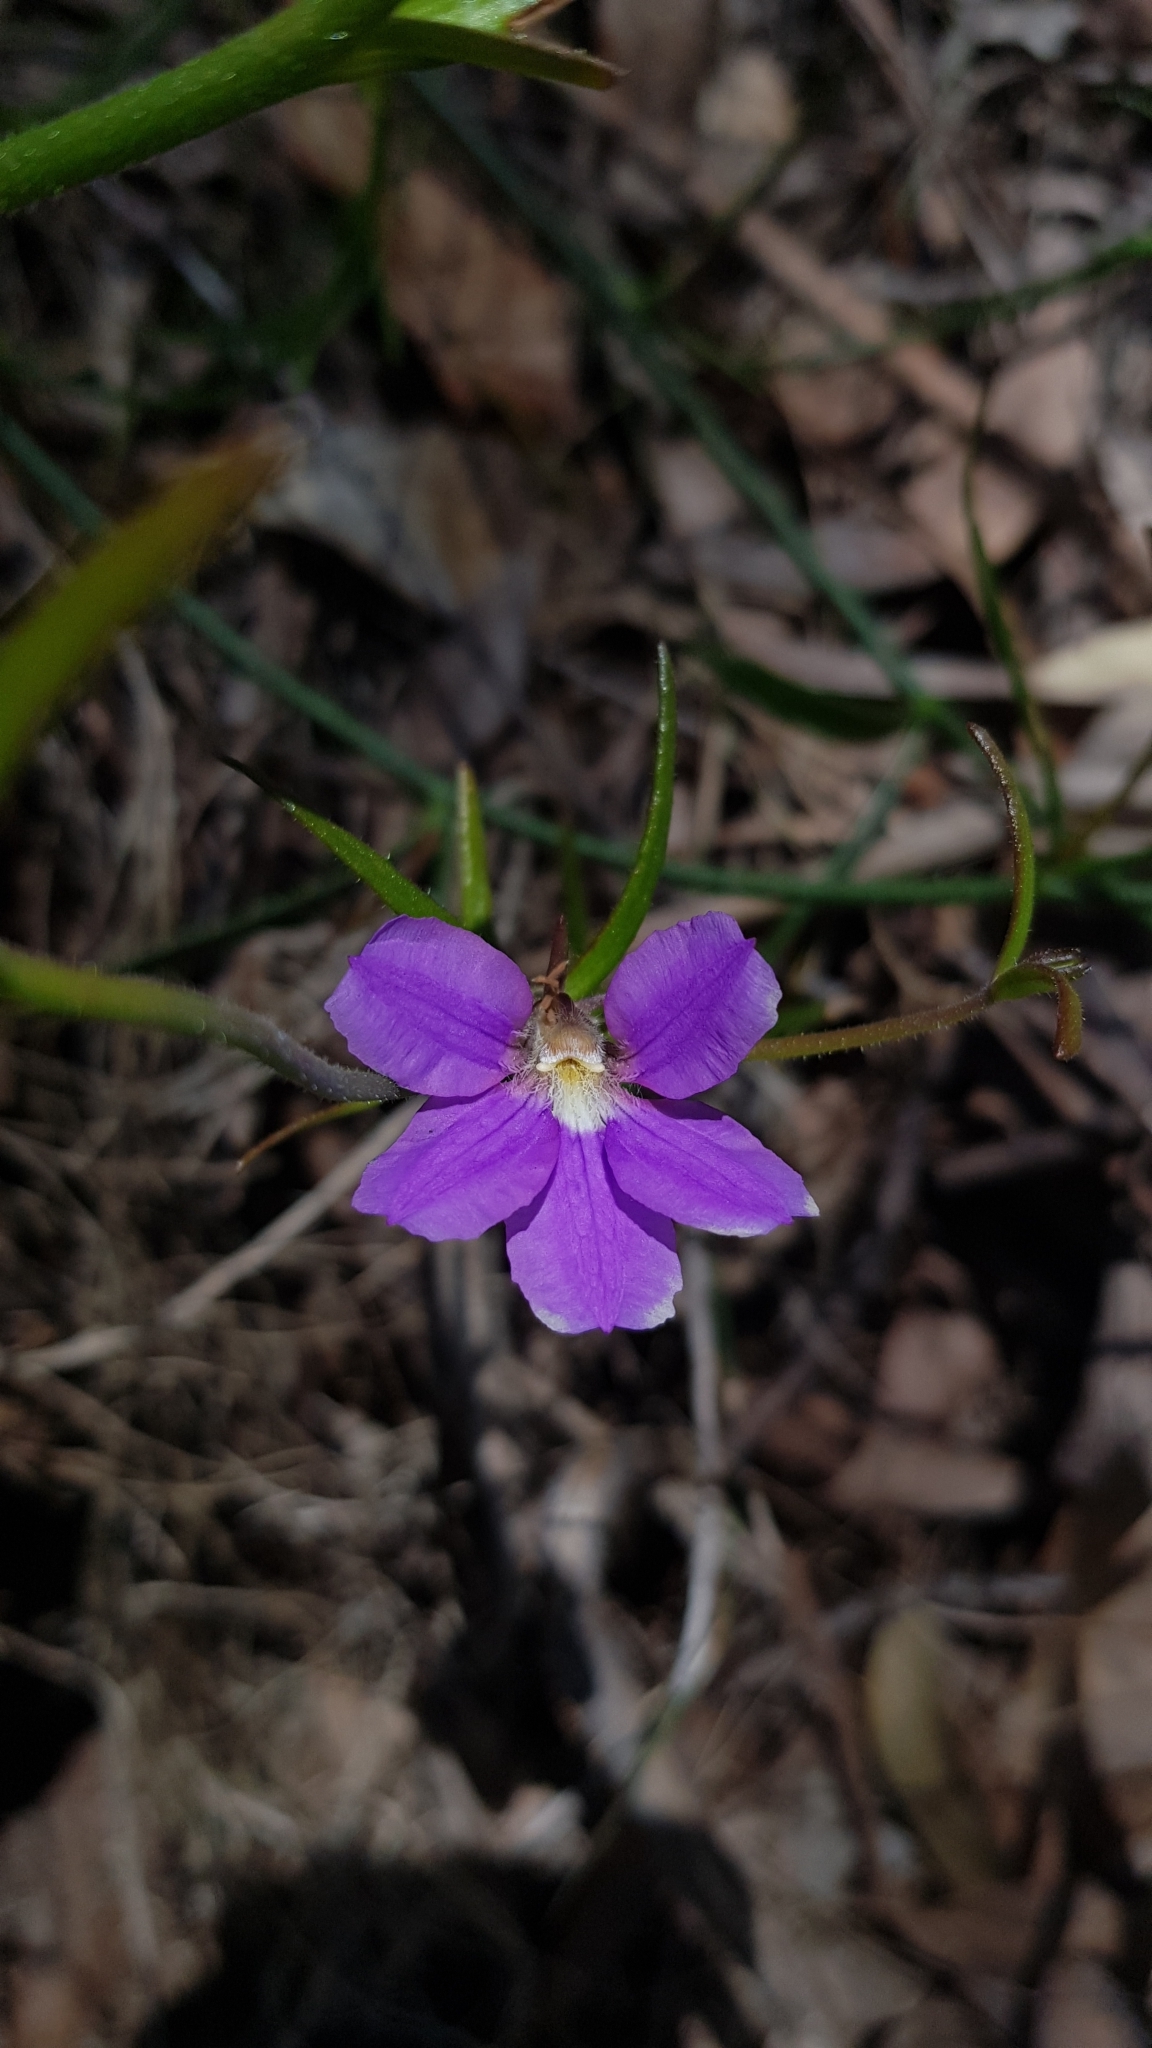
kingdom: Plantae
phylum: Tracheophyta
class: Magnoliopsida
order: Asterales
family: Goodeniaceae
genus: Scaevola
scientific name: Scaevola ramosissima
